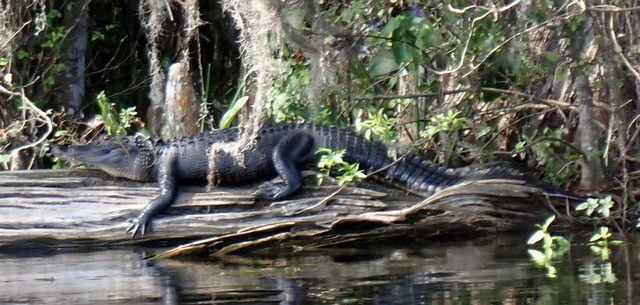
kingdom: Animalia
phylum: Chordata
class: Crocodylia
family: Alligatoridae
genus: Alligator
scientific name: Alligator mississippiensis
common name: American alligator
